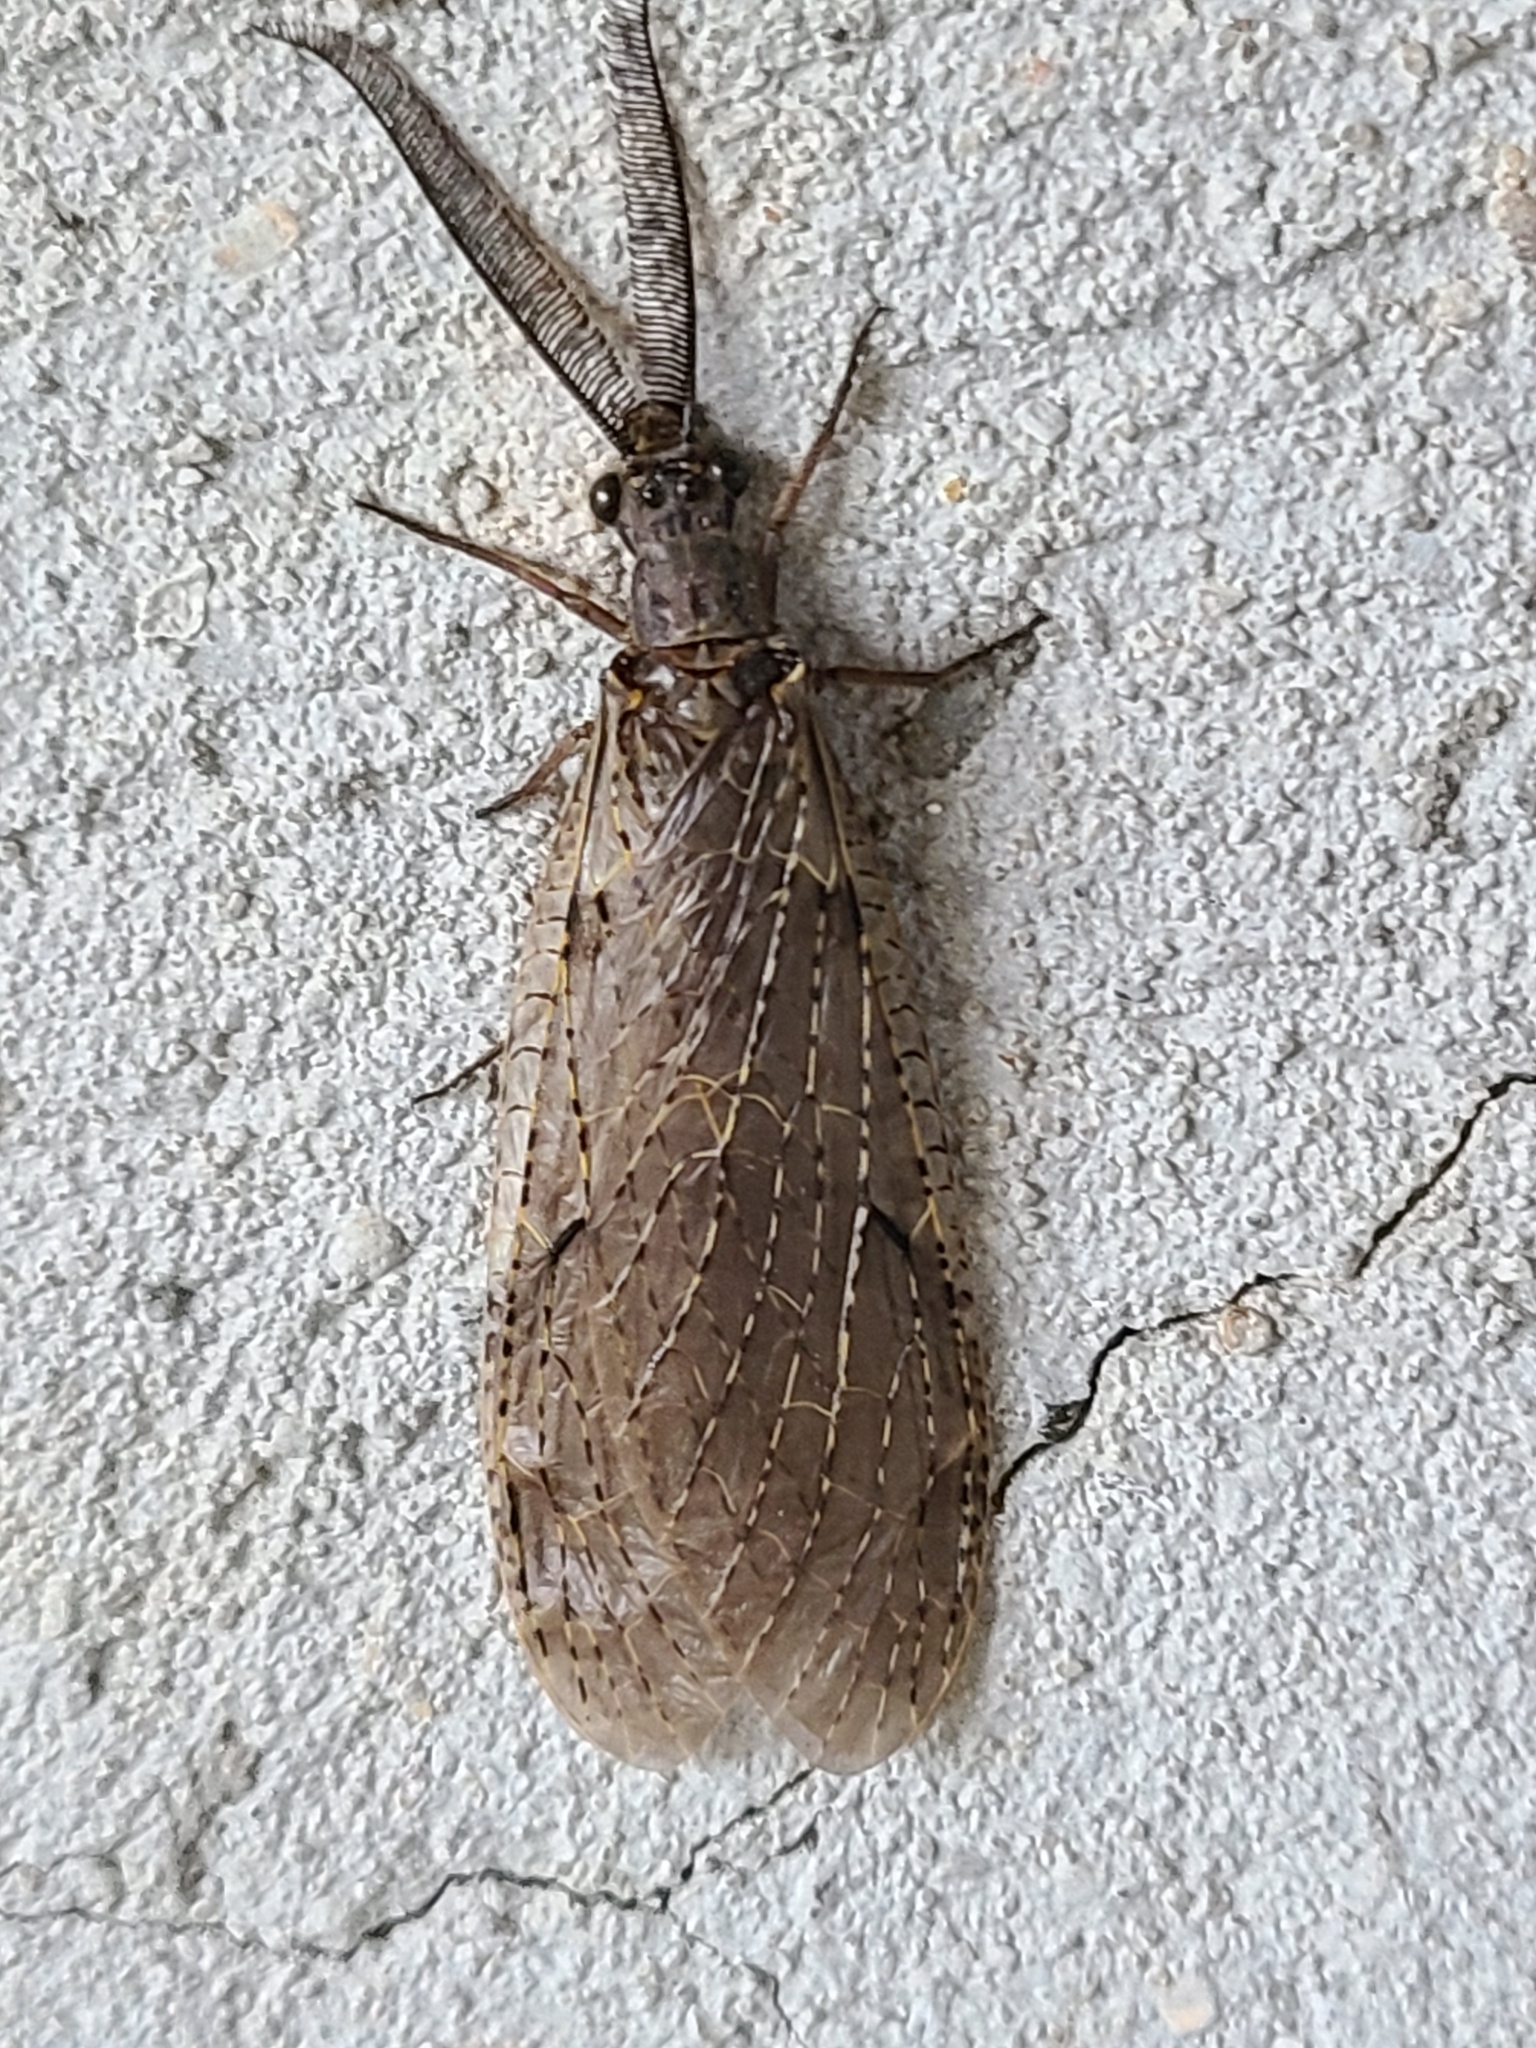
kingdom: Animalia
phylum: Arthropoda
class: Insecta
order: Megaloptera
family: Corydalidae
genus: Chauliodes
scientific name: Chauliodes rastricornis
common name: Spring fishfly
